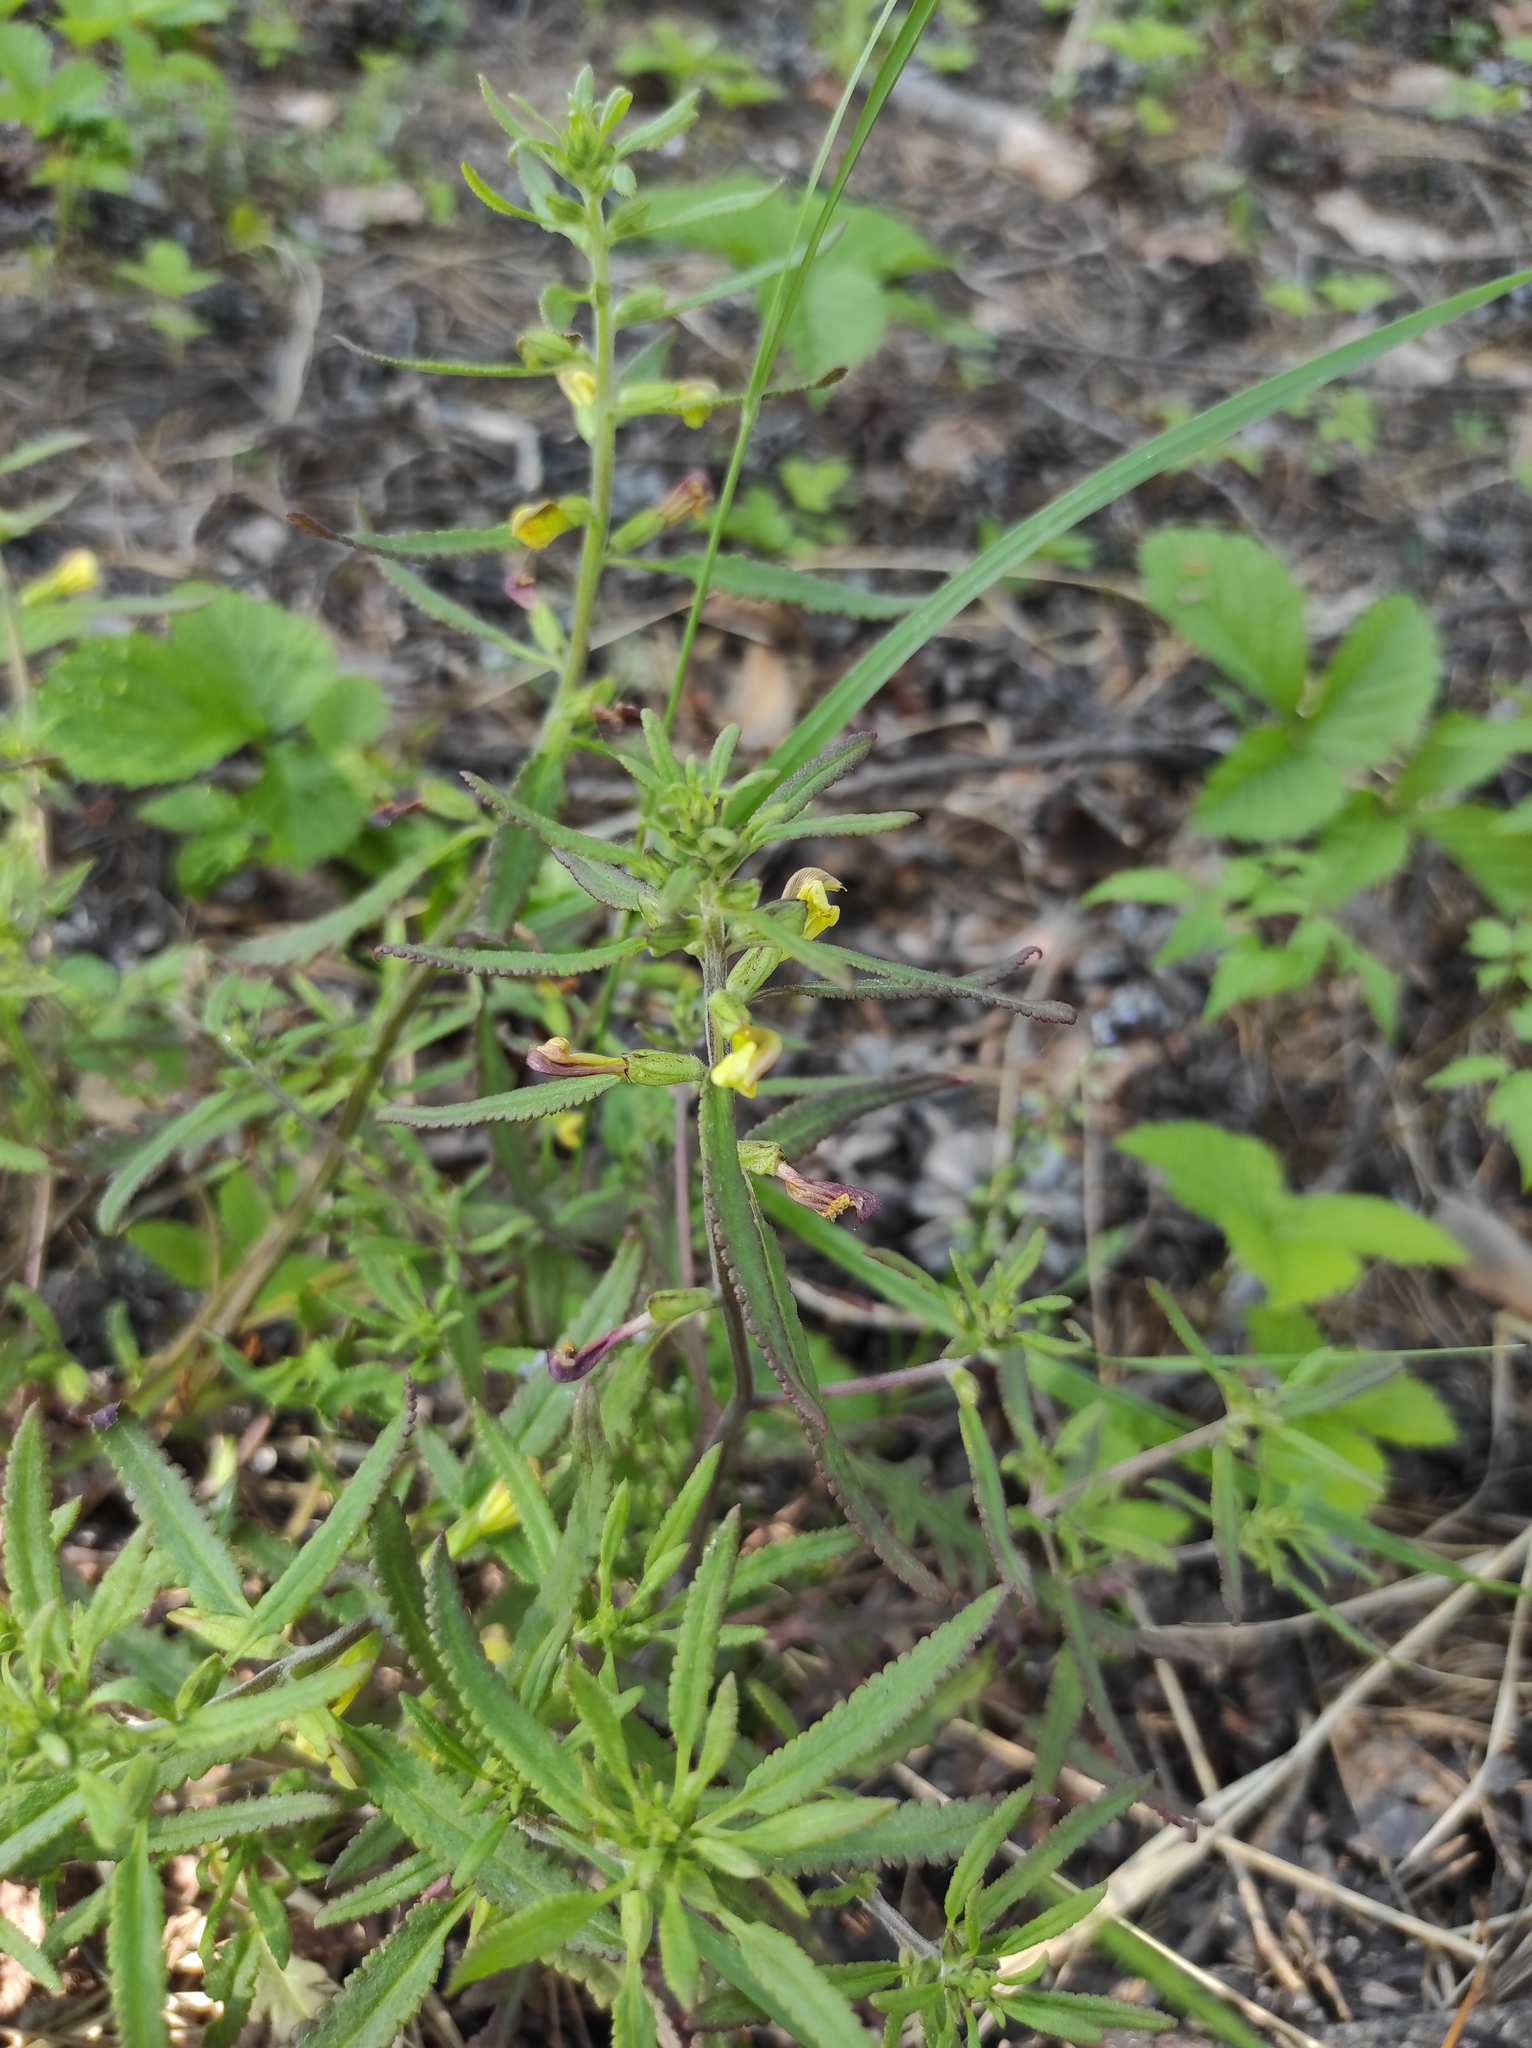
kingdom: Plantae
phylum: Tracheophyta
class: Magnoliopsida
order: Lamiales
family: Orobanchaceae
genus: Pedicularis
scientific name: Pedicularis labradorica
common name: Labrador lousewort
